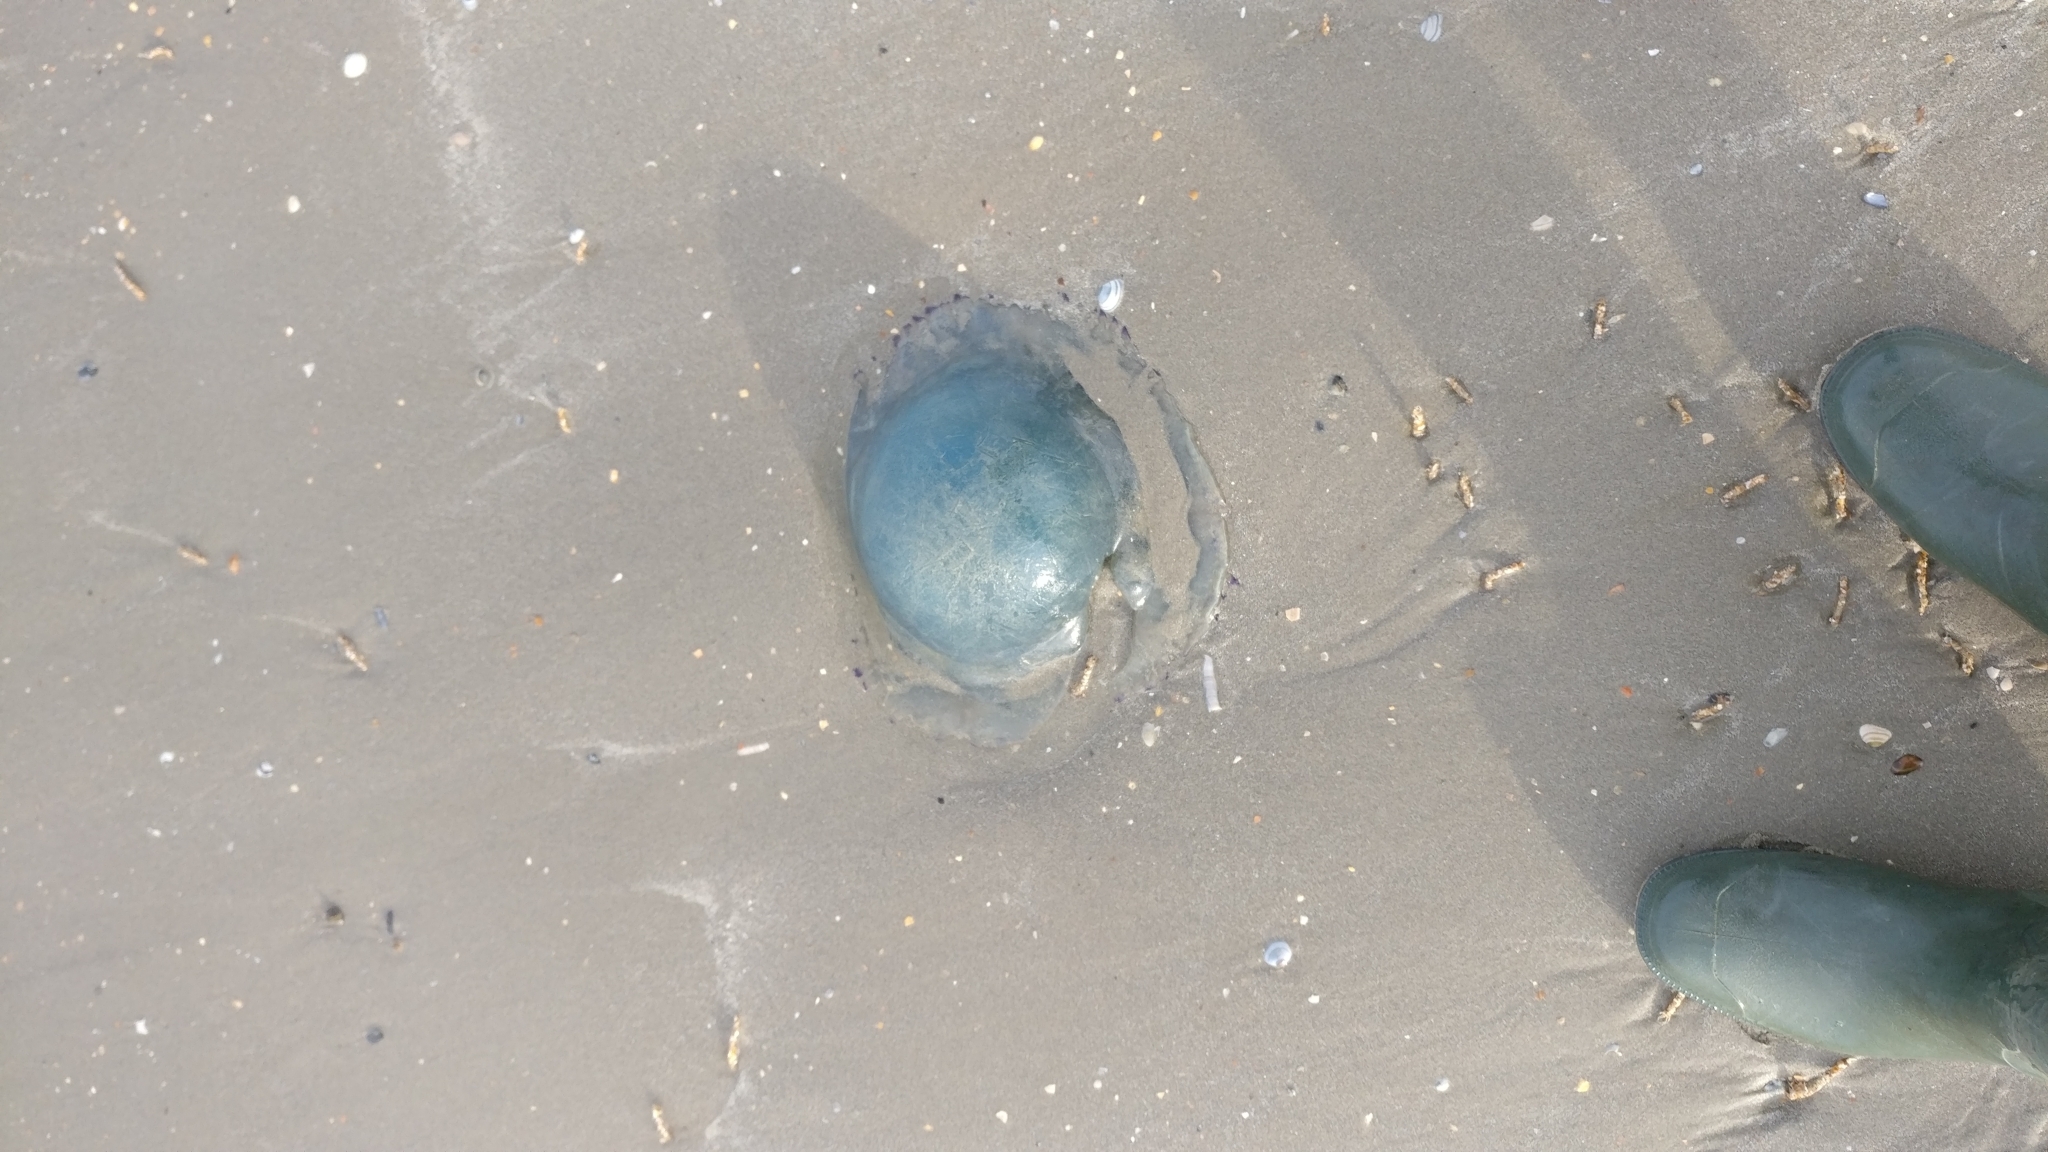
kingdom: Animalia
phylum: Cnidaria
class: Scyphozoa
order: Rhizostomeae
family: Rhizostomatidae
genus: Rhizostoma
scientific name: Rhizostoma octopus
